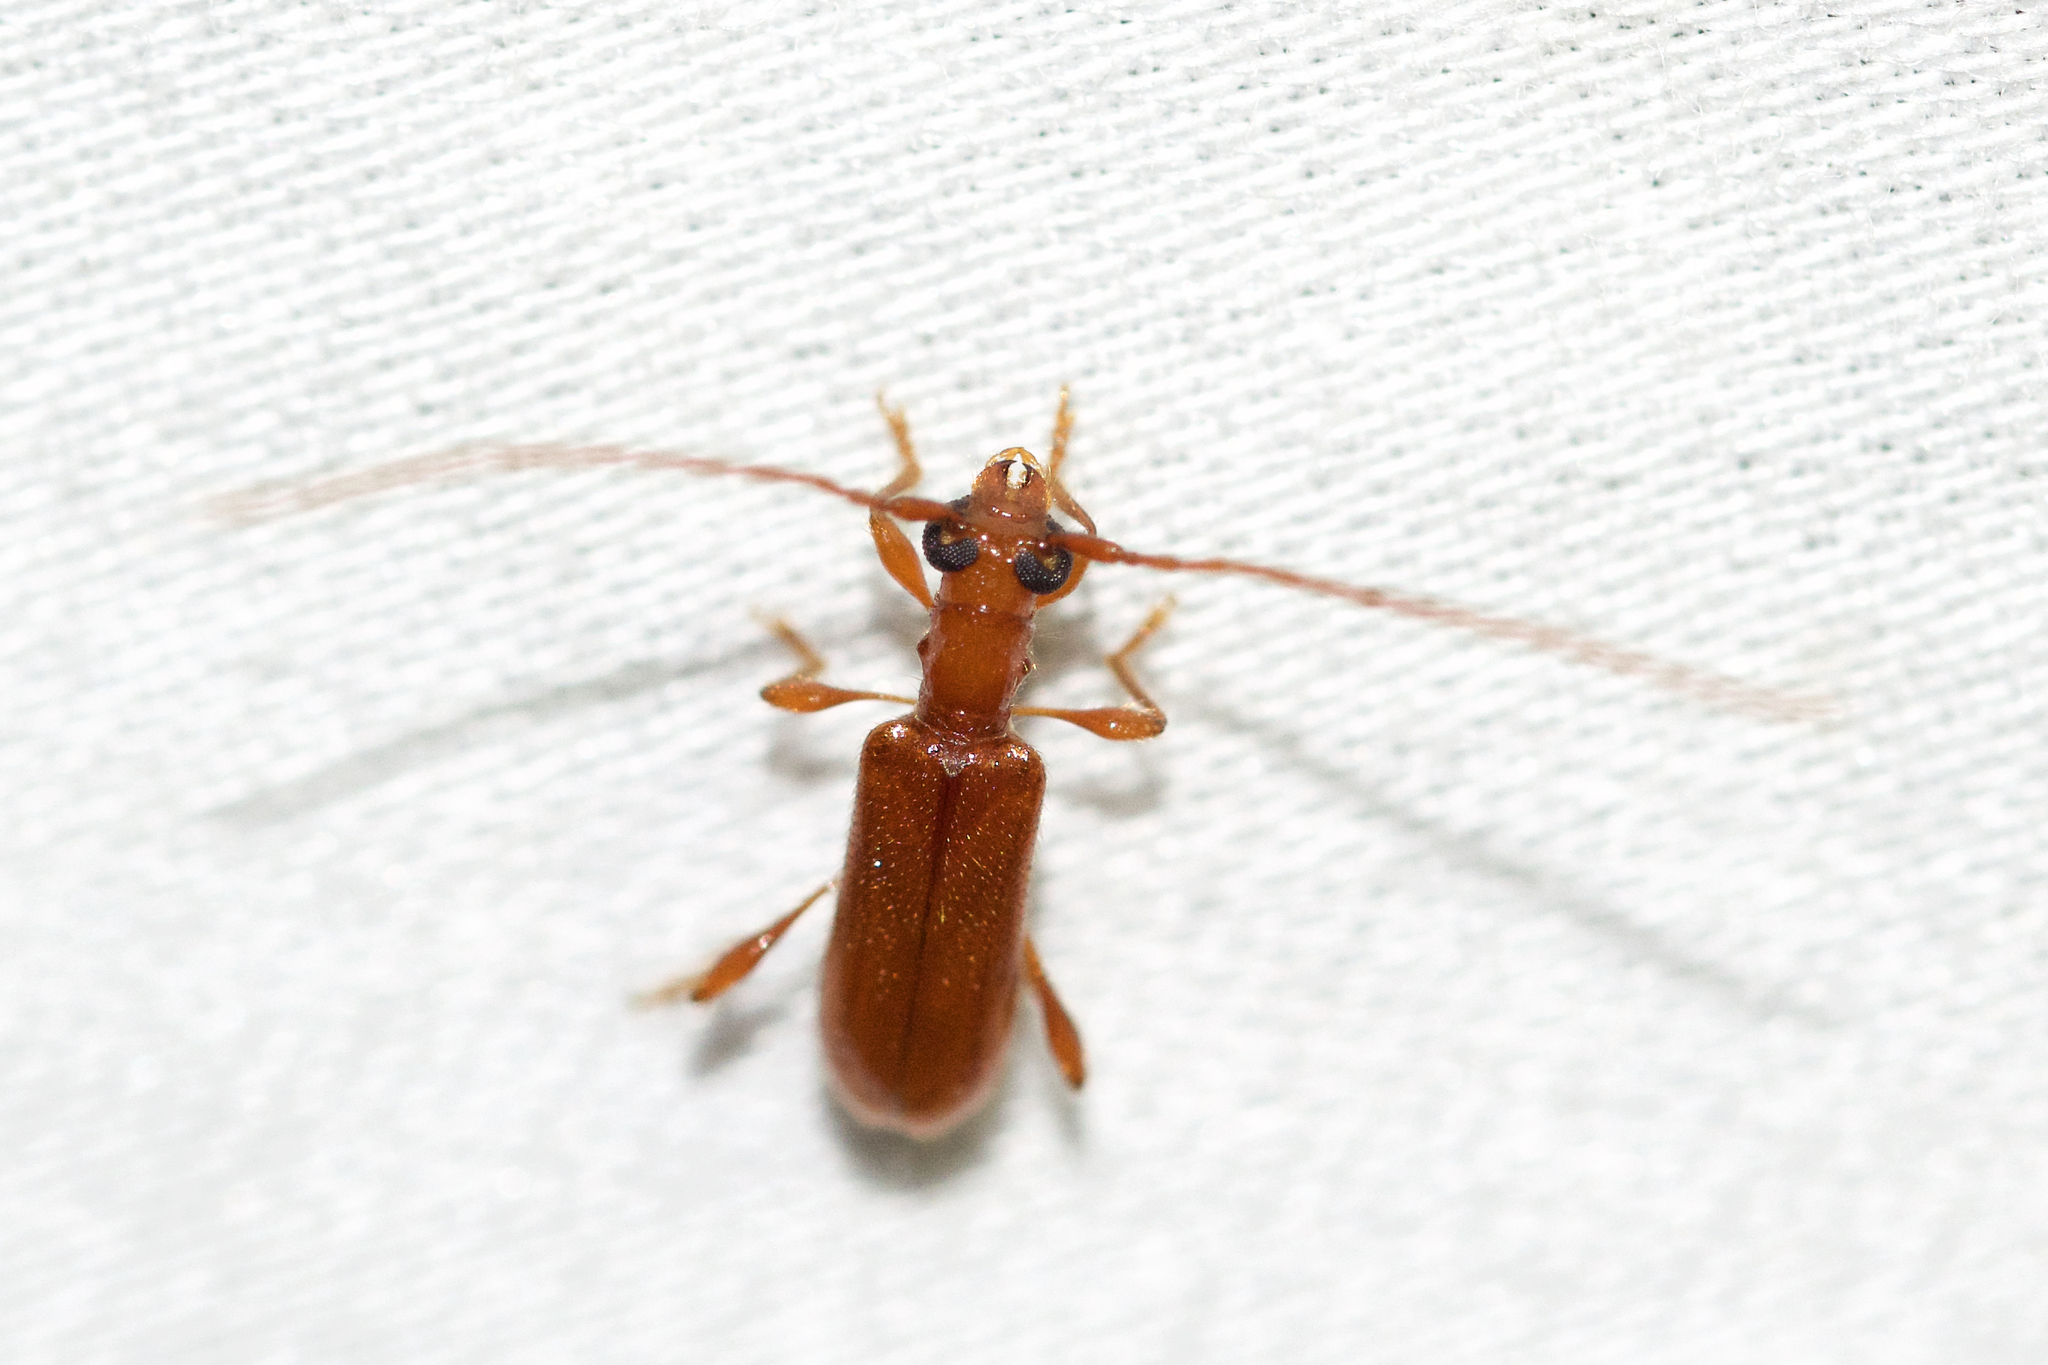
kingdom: Animalia
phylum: Arthropoda
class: Insecta
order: Coleoptera
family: Cerambycidae
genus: Obrium
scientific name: Obrium rufulum
